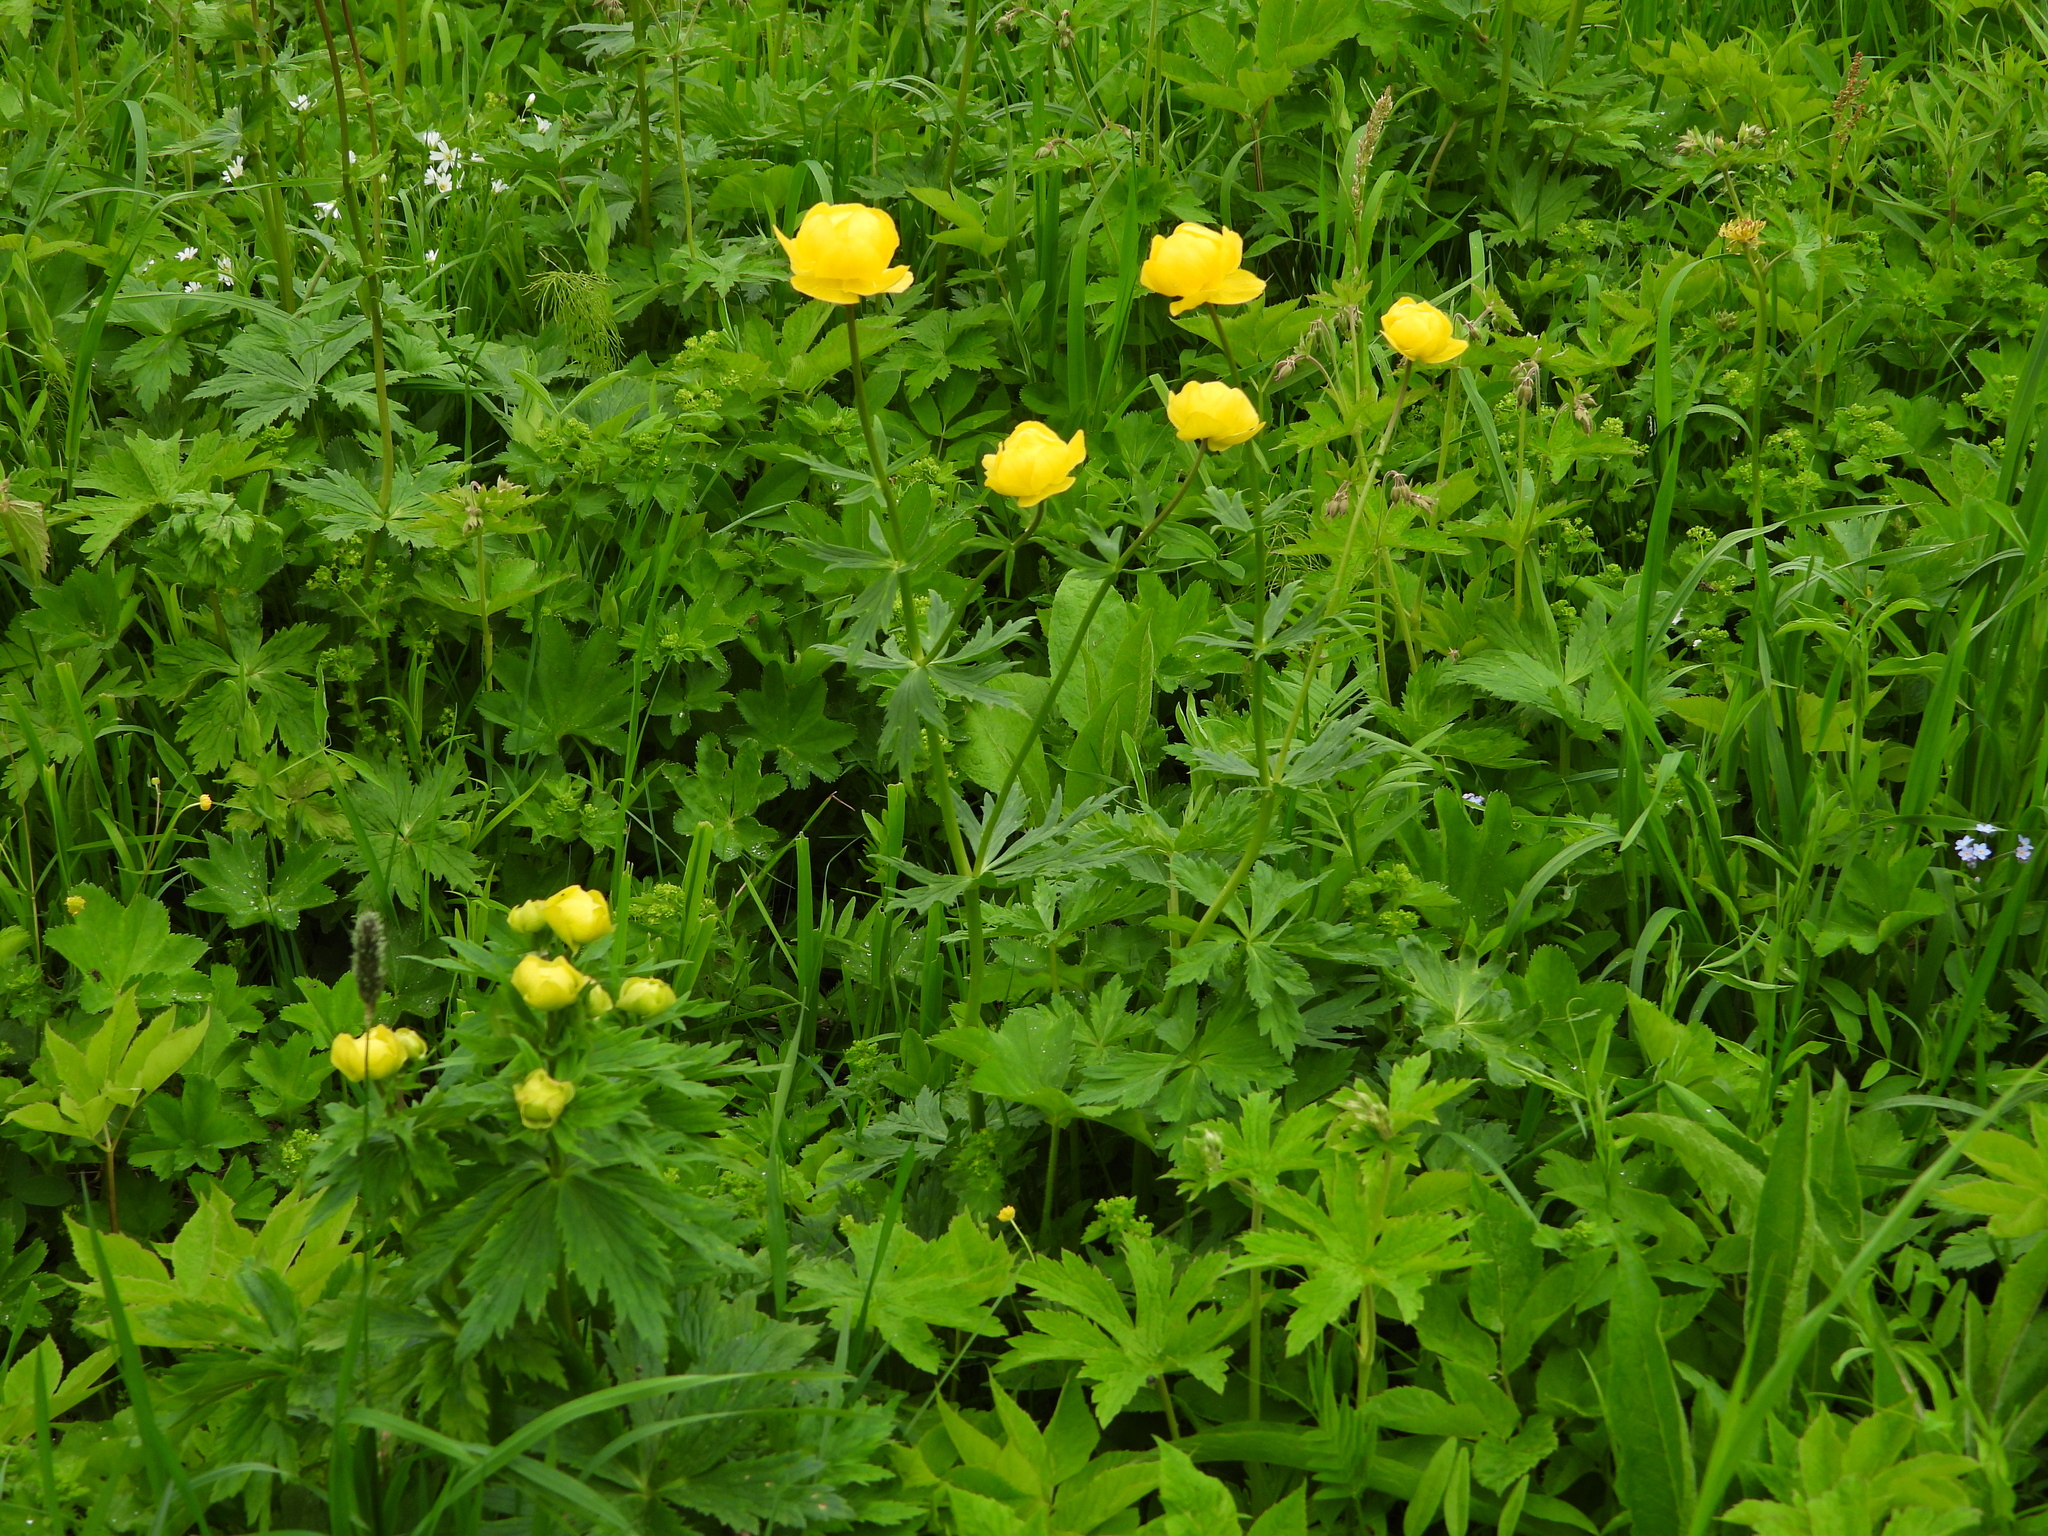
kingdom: Plantae
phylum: Tracheophyta
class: Magnoliopsida
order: Ranunculales
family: Ranunculaceae
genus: Trollius
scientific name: Trollius europaeus
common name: European globeflower
